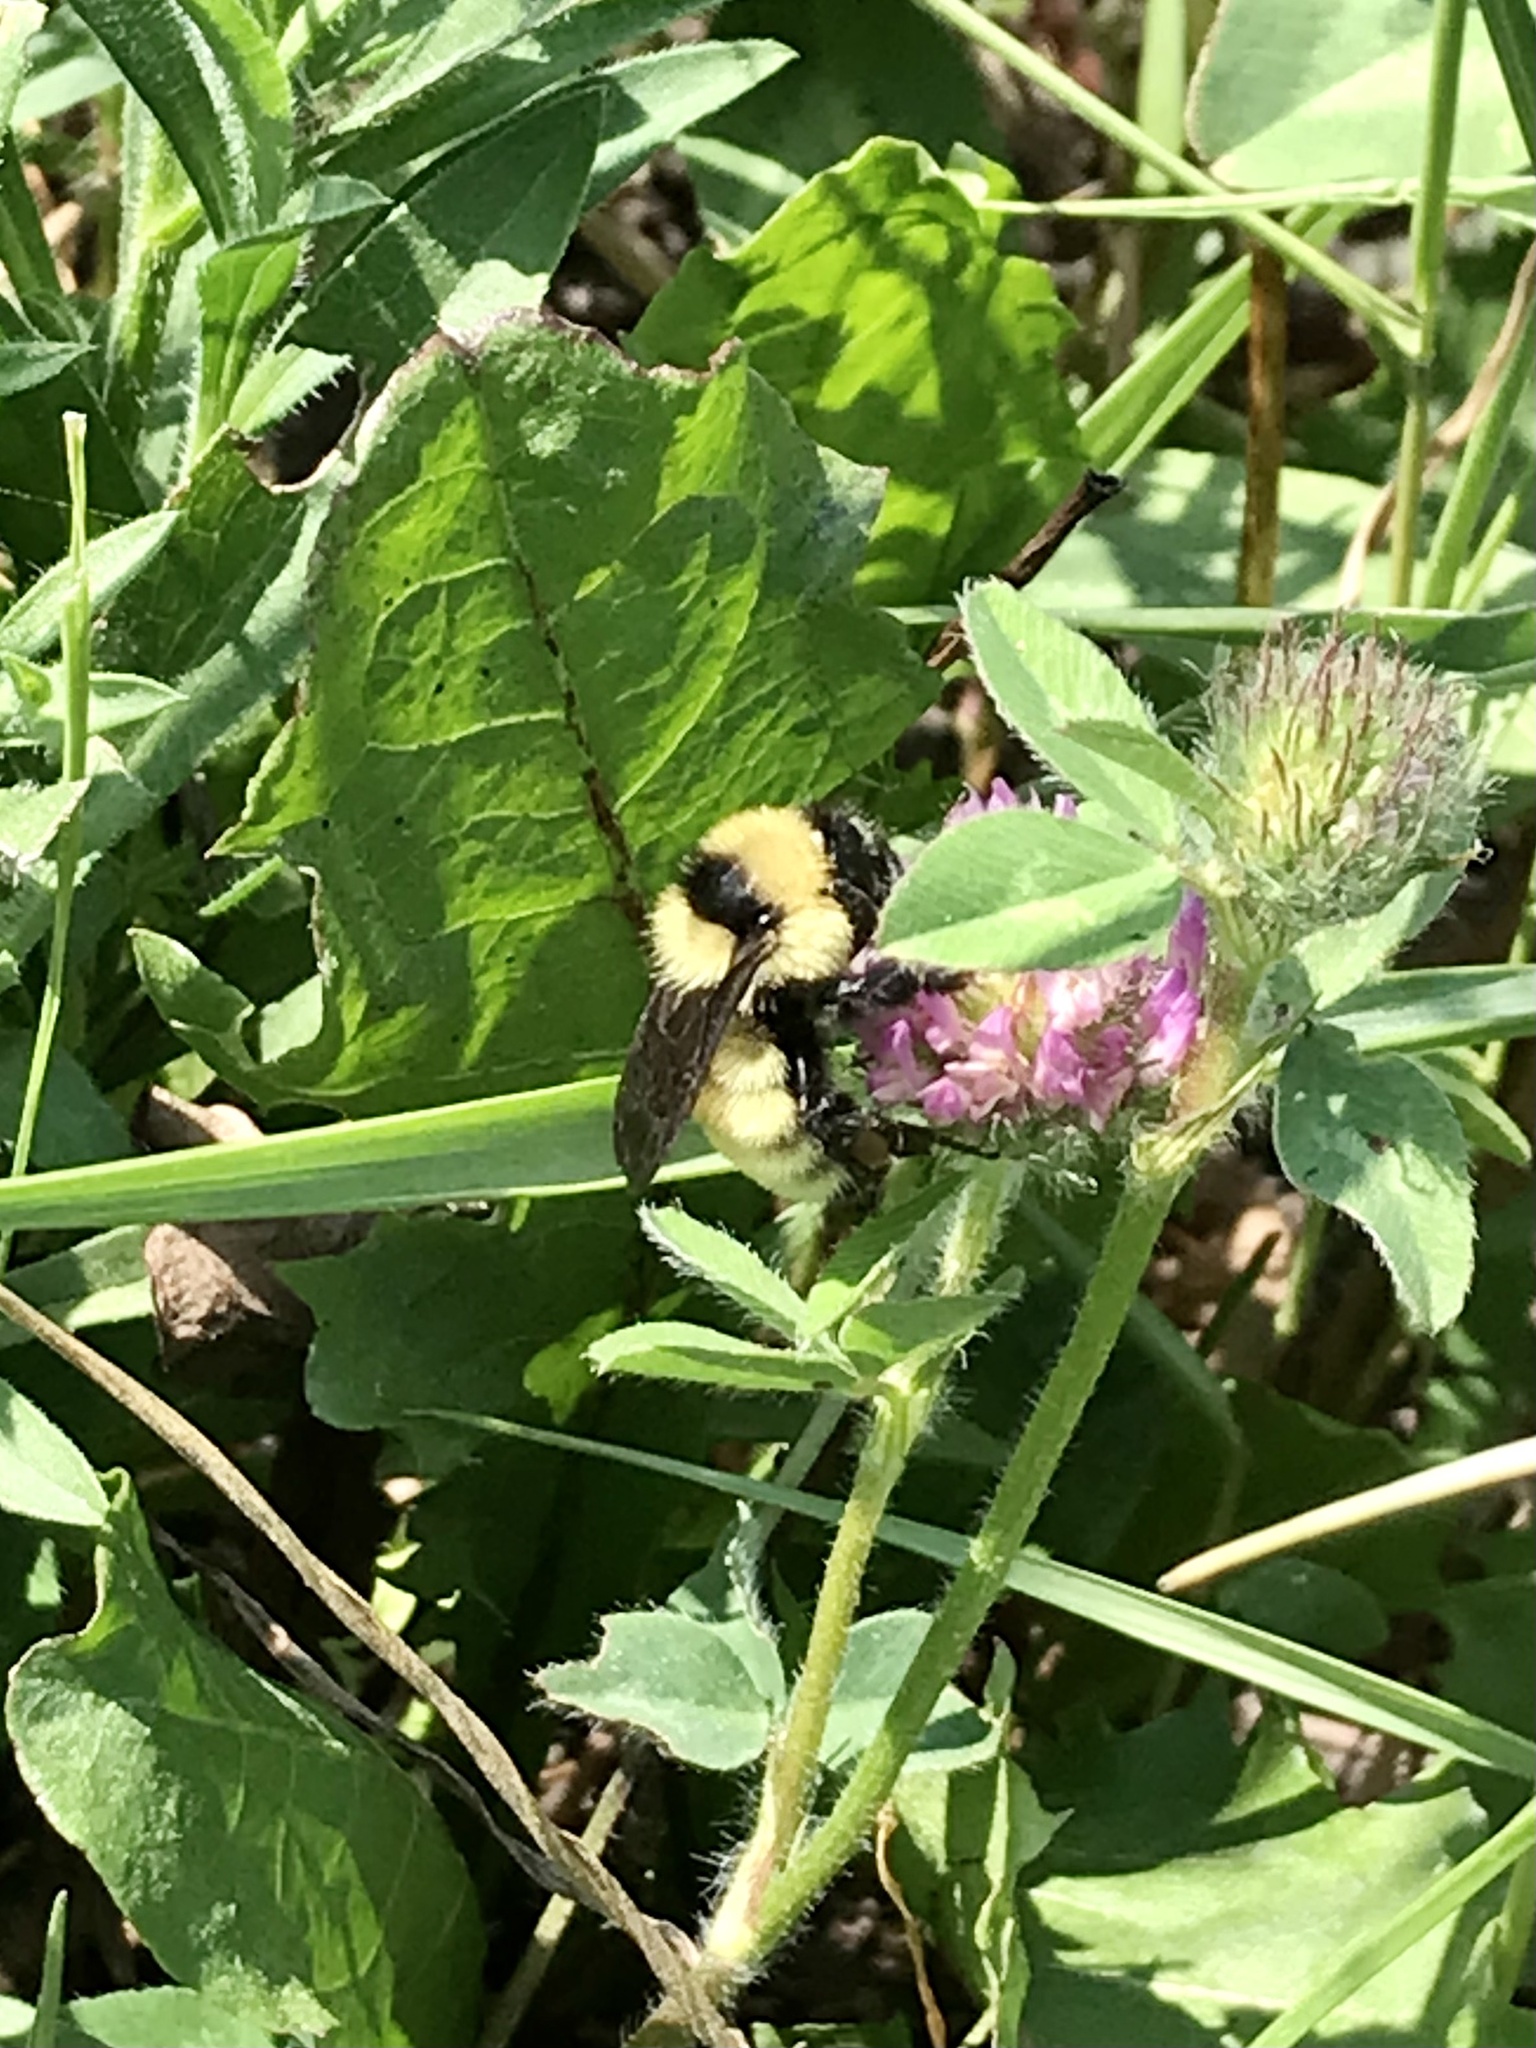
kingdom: Animalia
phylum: Arthropoda
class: Insecta
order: Hymenoptera
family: Apidae
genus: Bombus
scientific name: Bombus fervidus
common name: Yellow bumble bee
